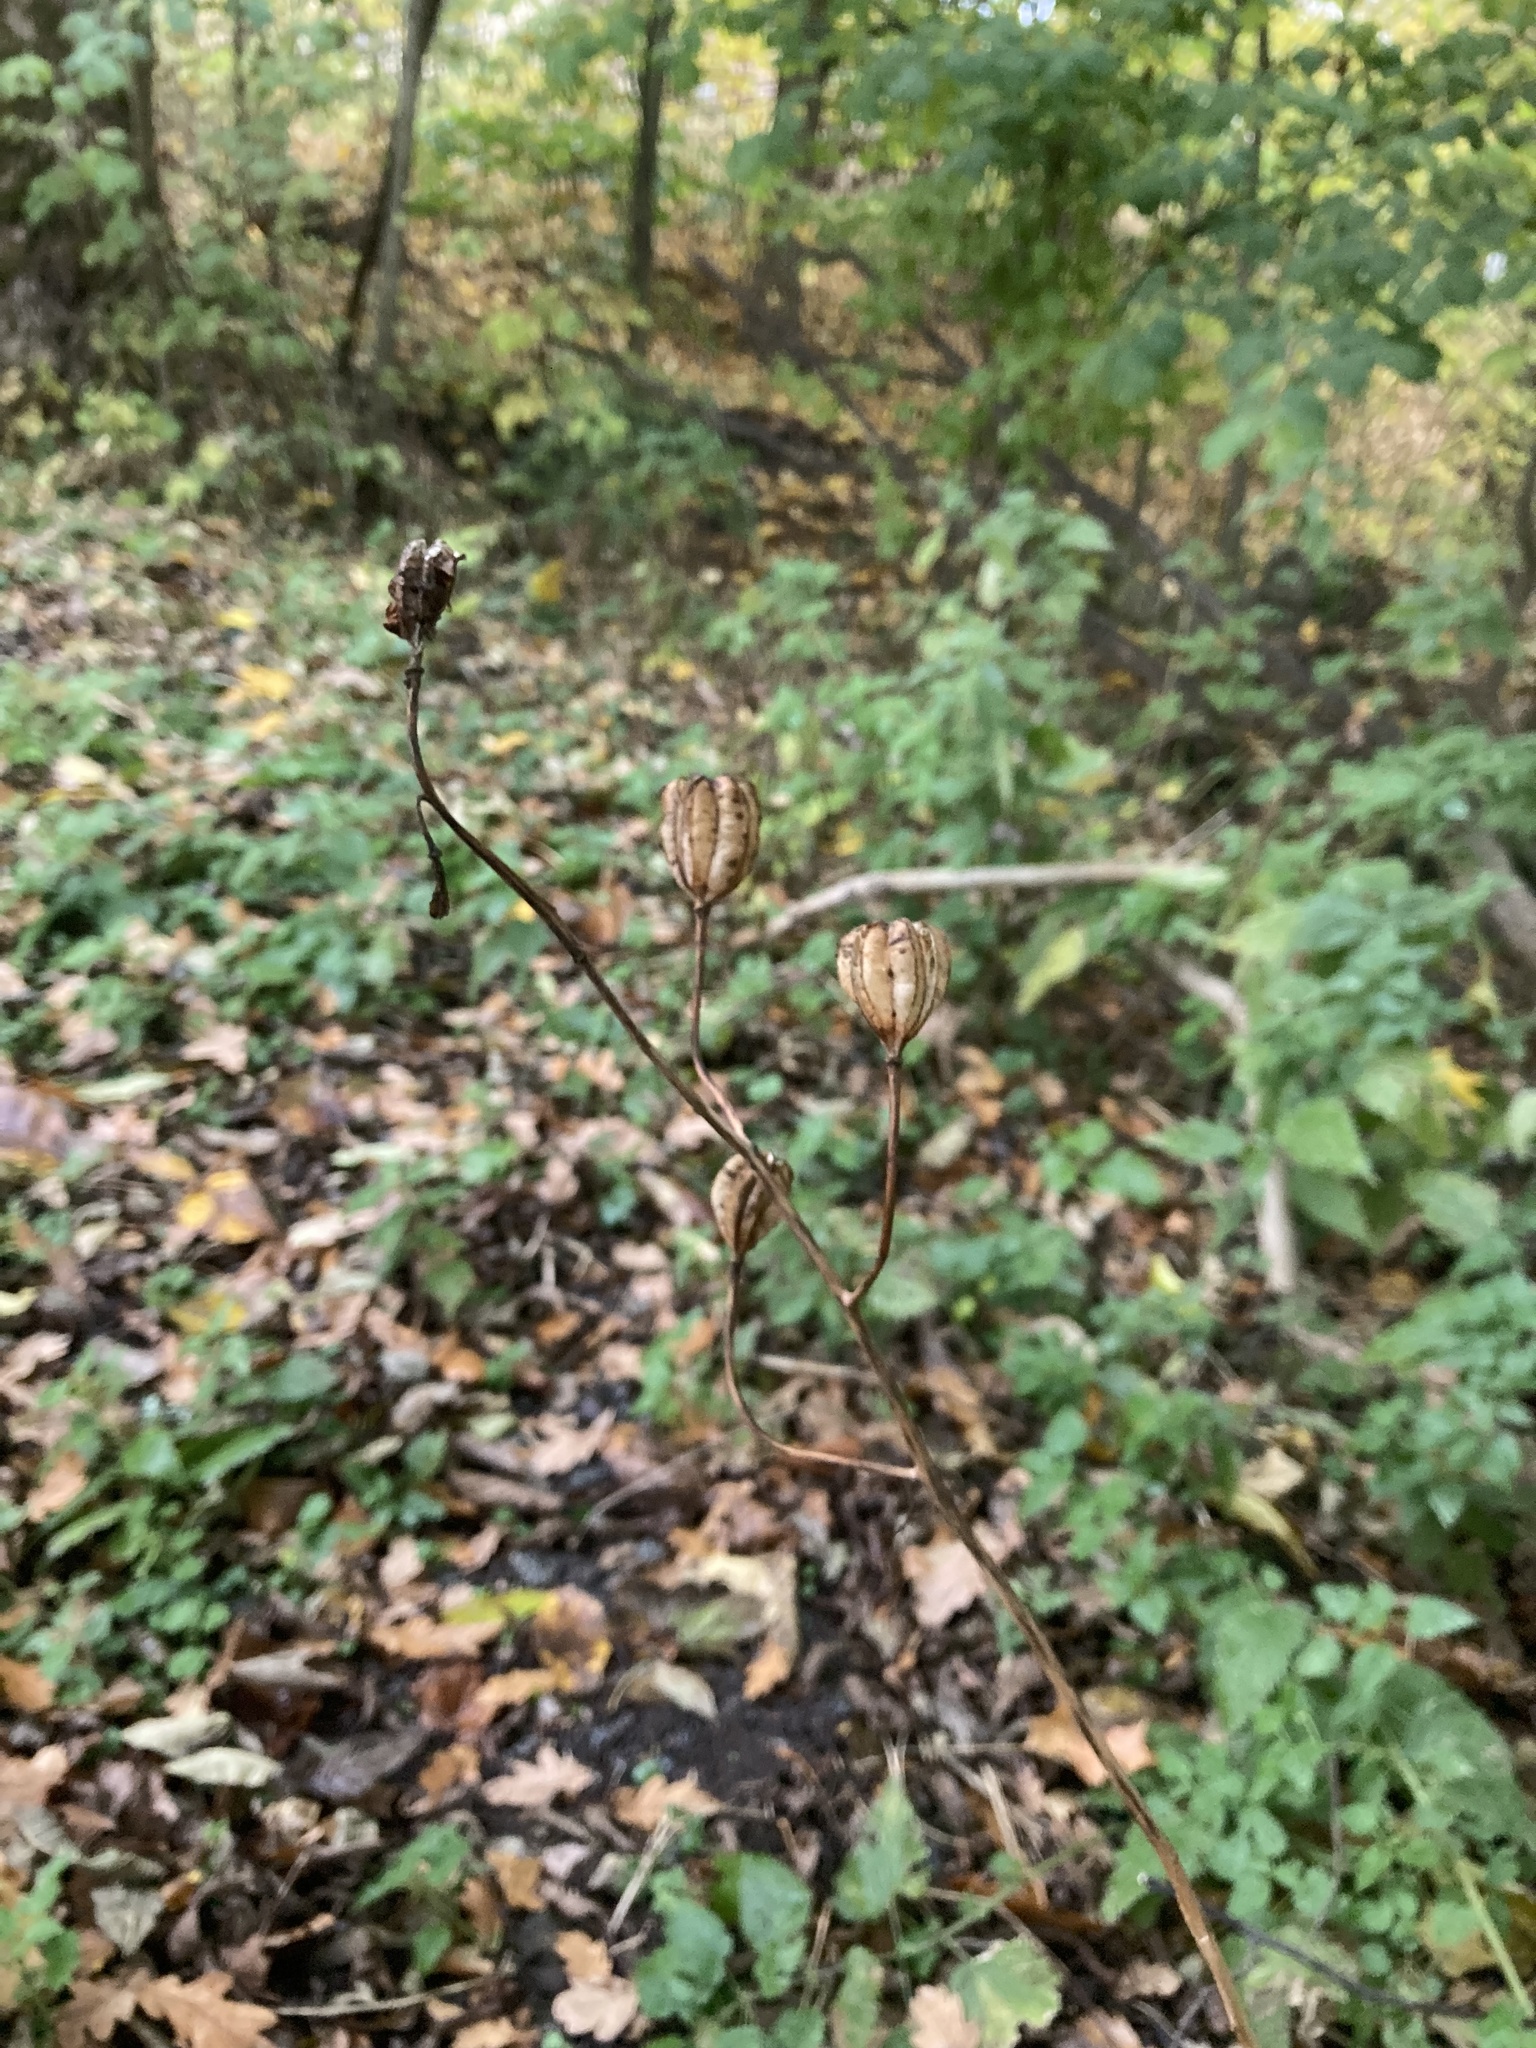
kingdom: Plantae
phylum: Tracheophyta
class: Liliopsida
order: Liliales
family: Liliaceae
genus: Lilium
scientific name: Lilium martagon
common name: Martagon lily
